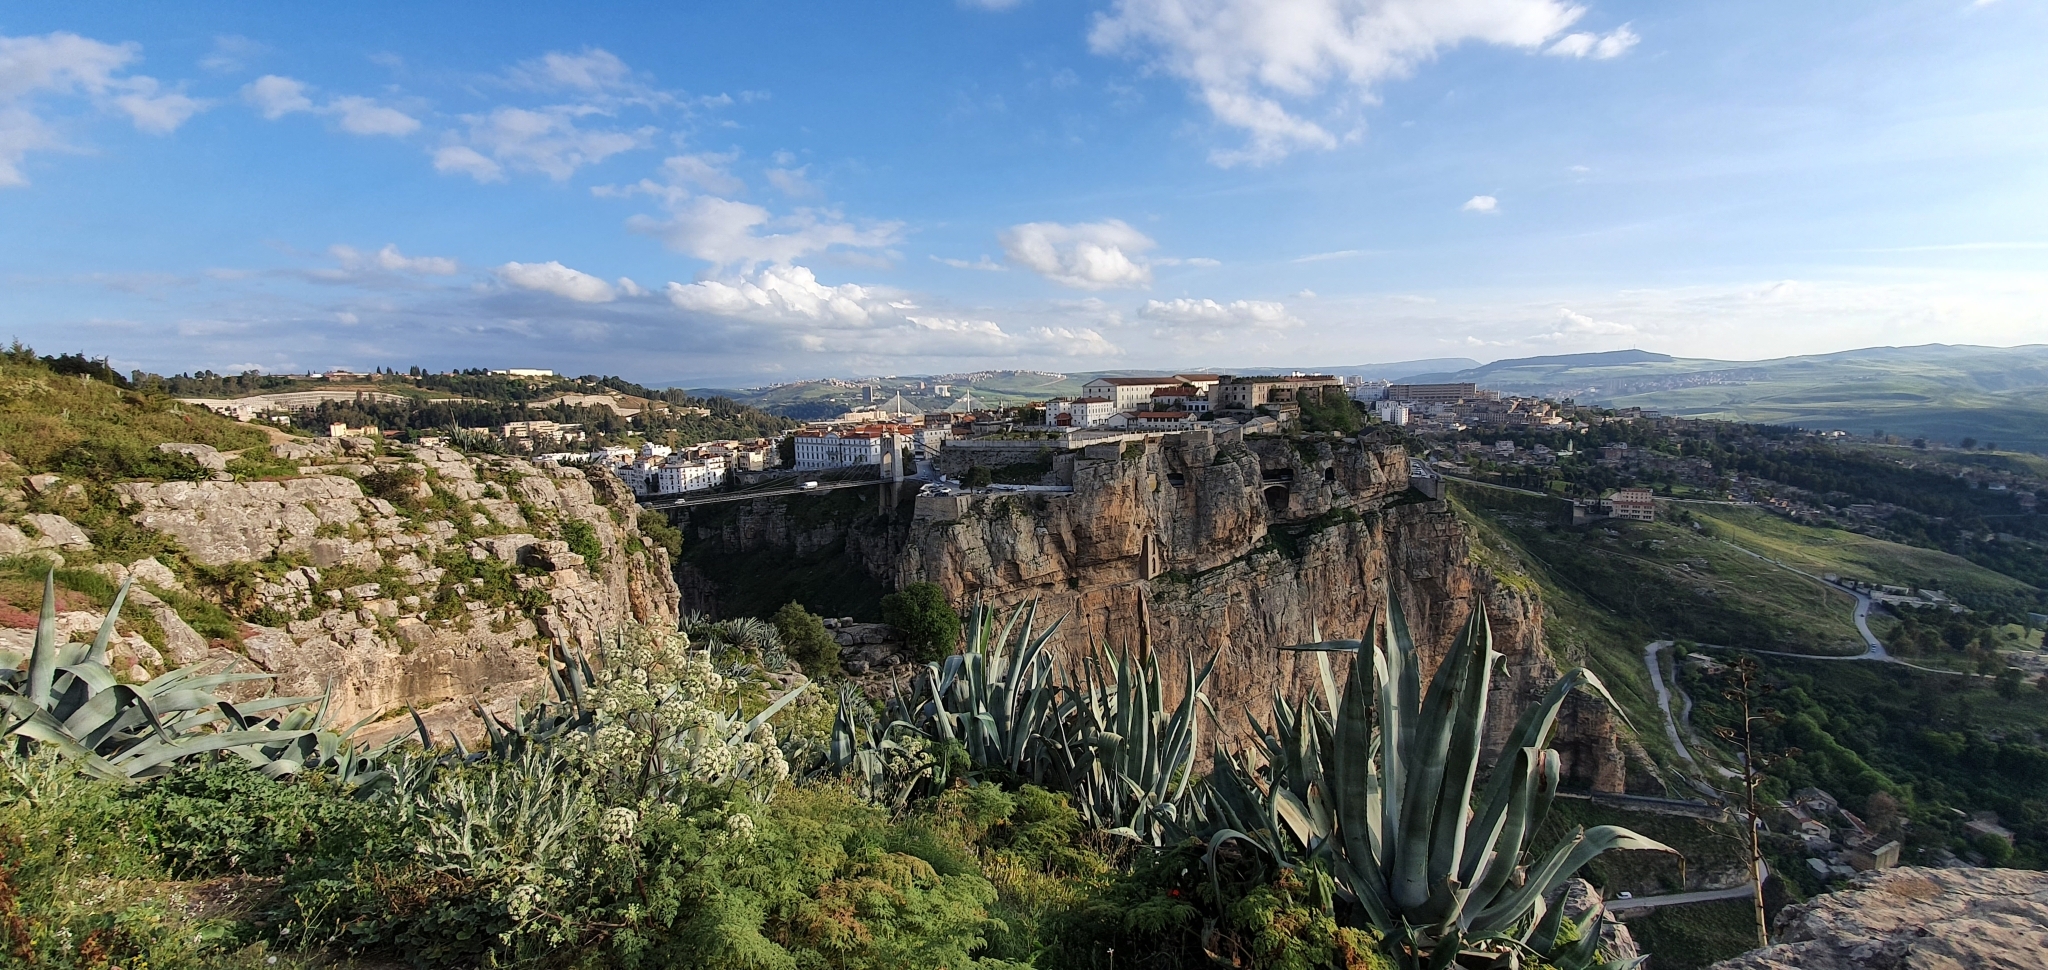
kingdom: Plantae
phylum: Tracheophyta
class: Liliopsida
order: Asparagales
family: Asparagaceae
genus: Agave
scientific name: Agave americana
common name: Centuryplant
